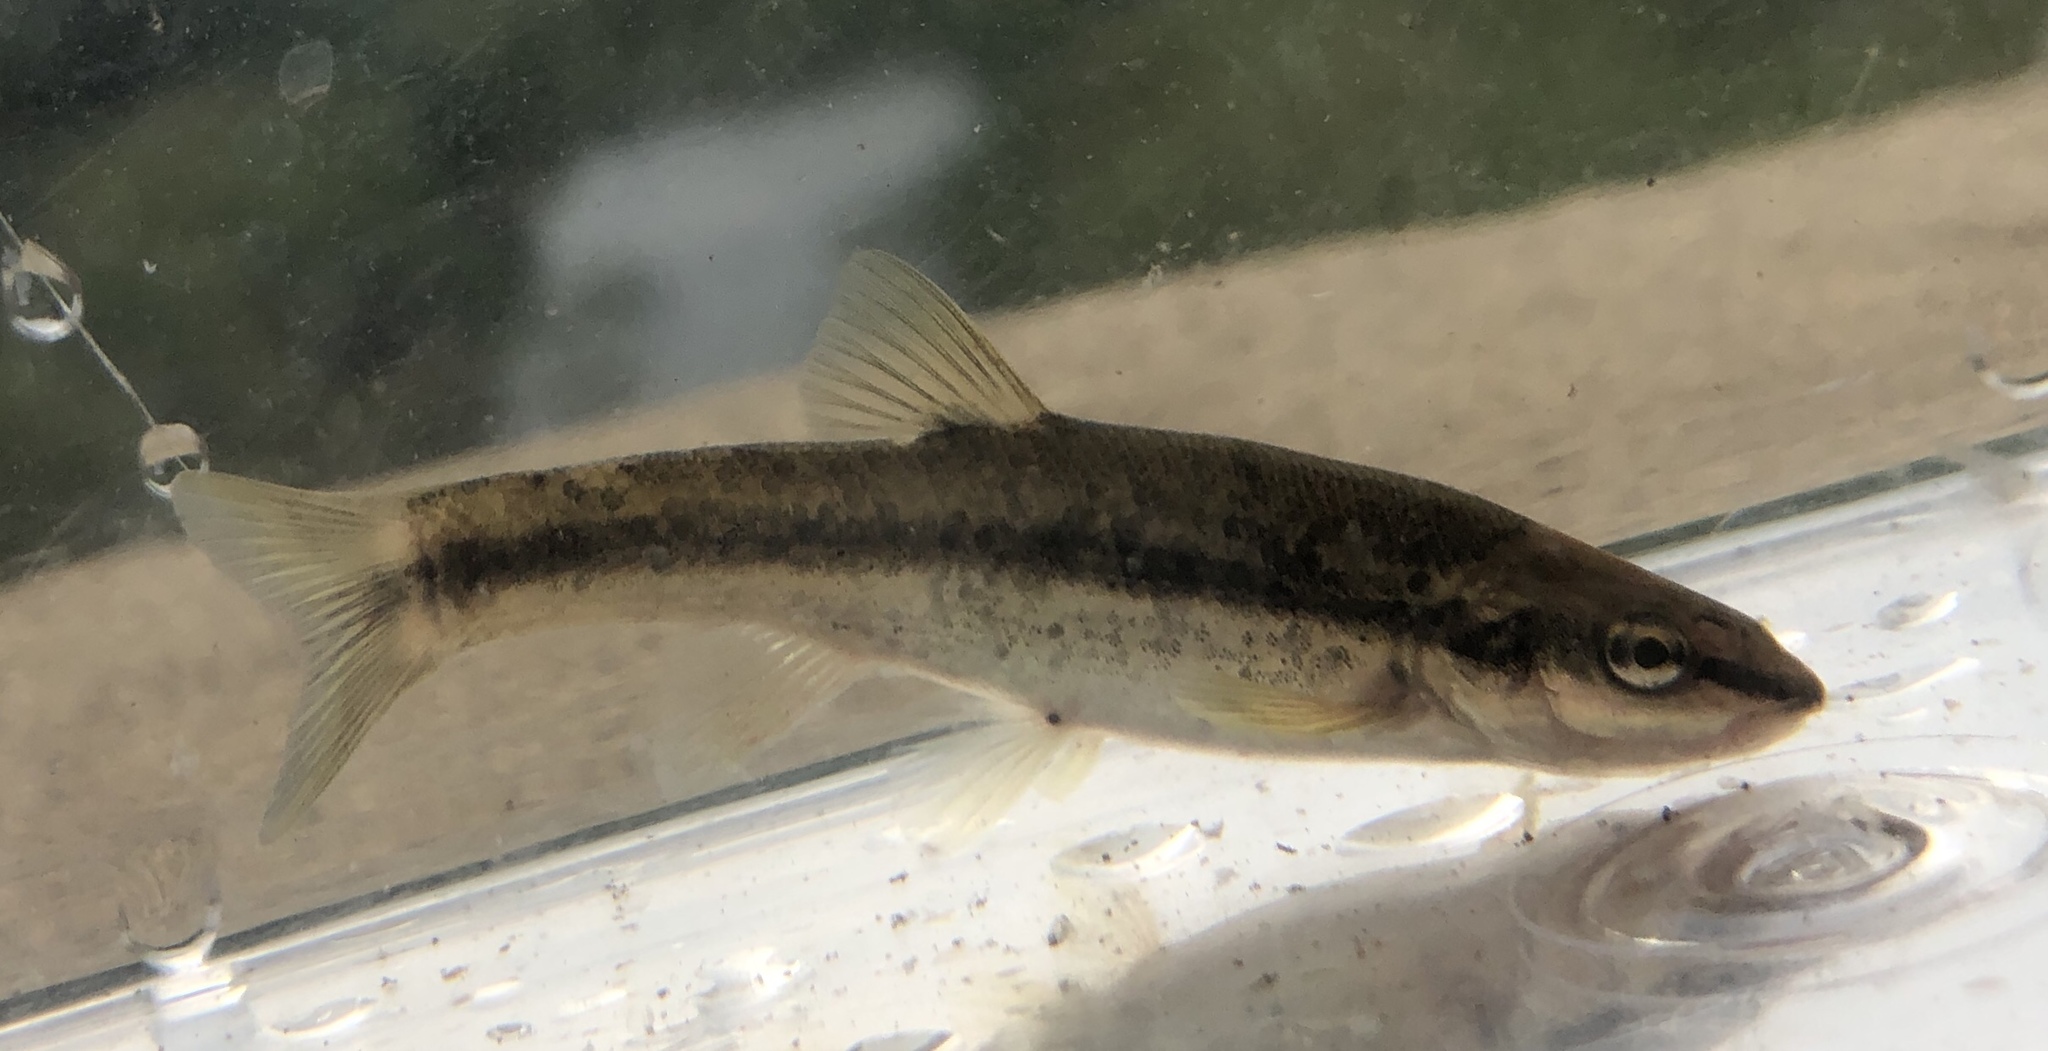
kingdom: Animalia
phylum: Chordata
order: Cypriniformes
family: Cyprinidae
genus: Rhinichthys
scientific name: Rhinichthys obtusus
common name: Western blacknose dace
